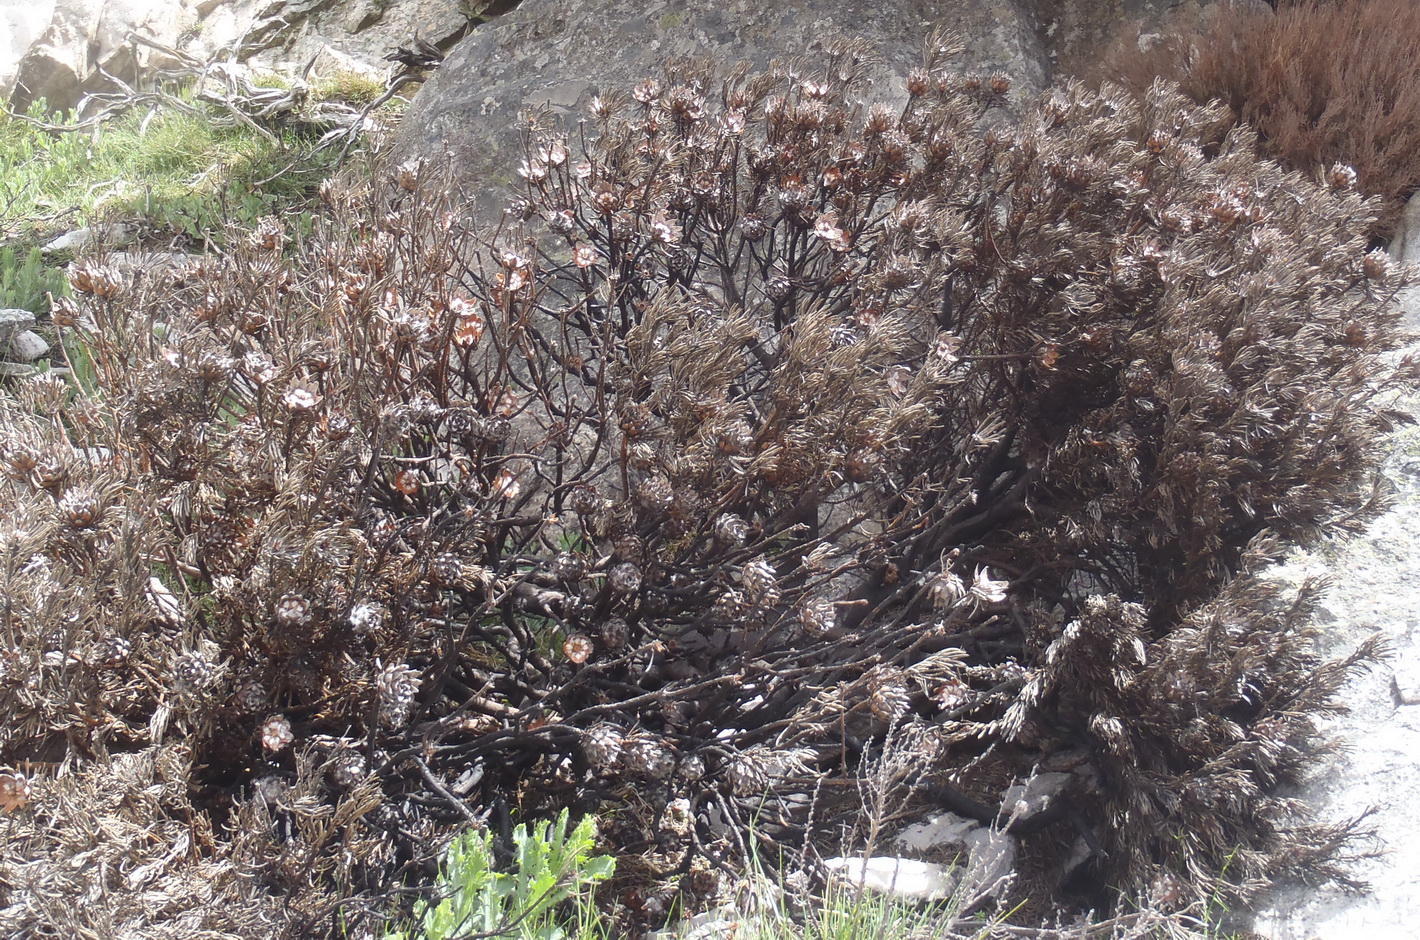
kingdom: Plantae
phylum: Tracheophyta
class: Magnoliopsida
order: Proteales
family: Proteaceae
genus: Leucadendron
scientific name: Leucadendron dregei
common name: Summit conebush
